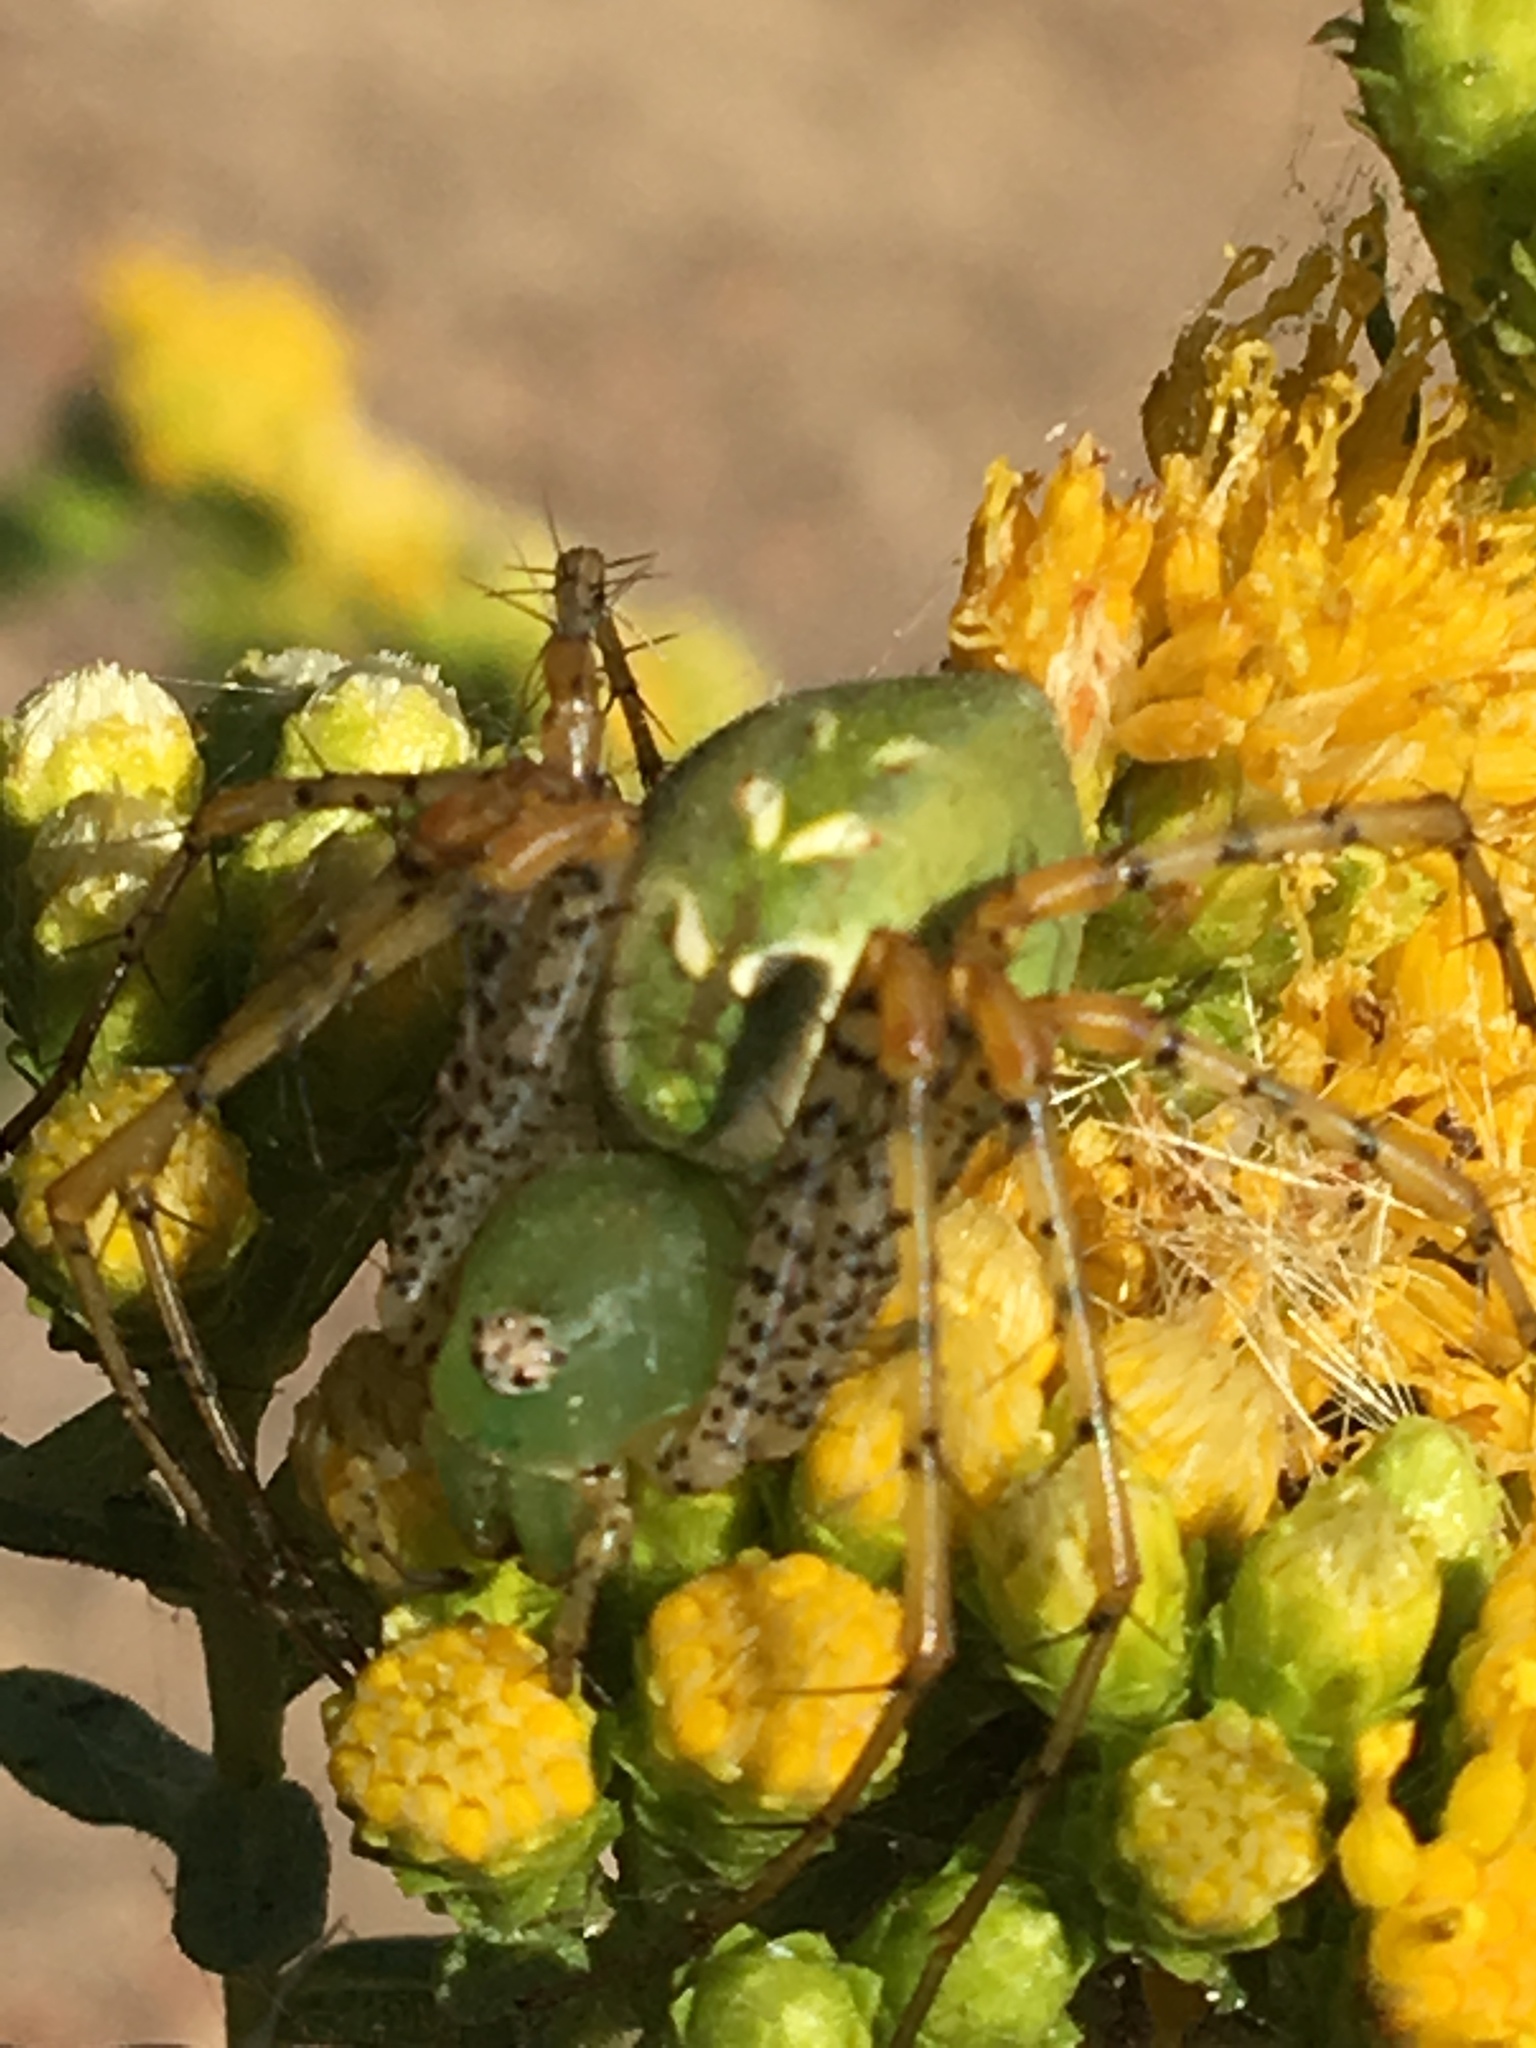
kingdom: Animalia
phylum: Arthropoda
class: Arachnida
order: Araneae
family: Oxyopidae
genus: Peucetia
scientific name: Peucetia viridans
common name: Lynx spiders
